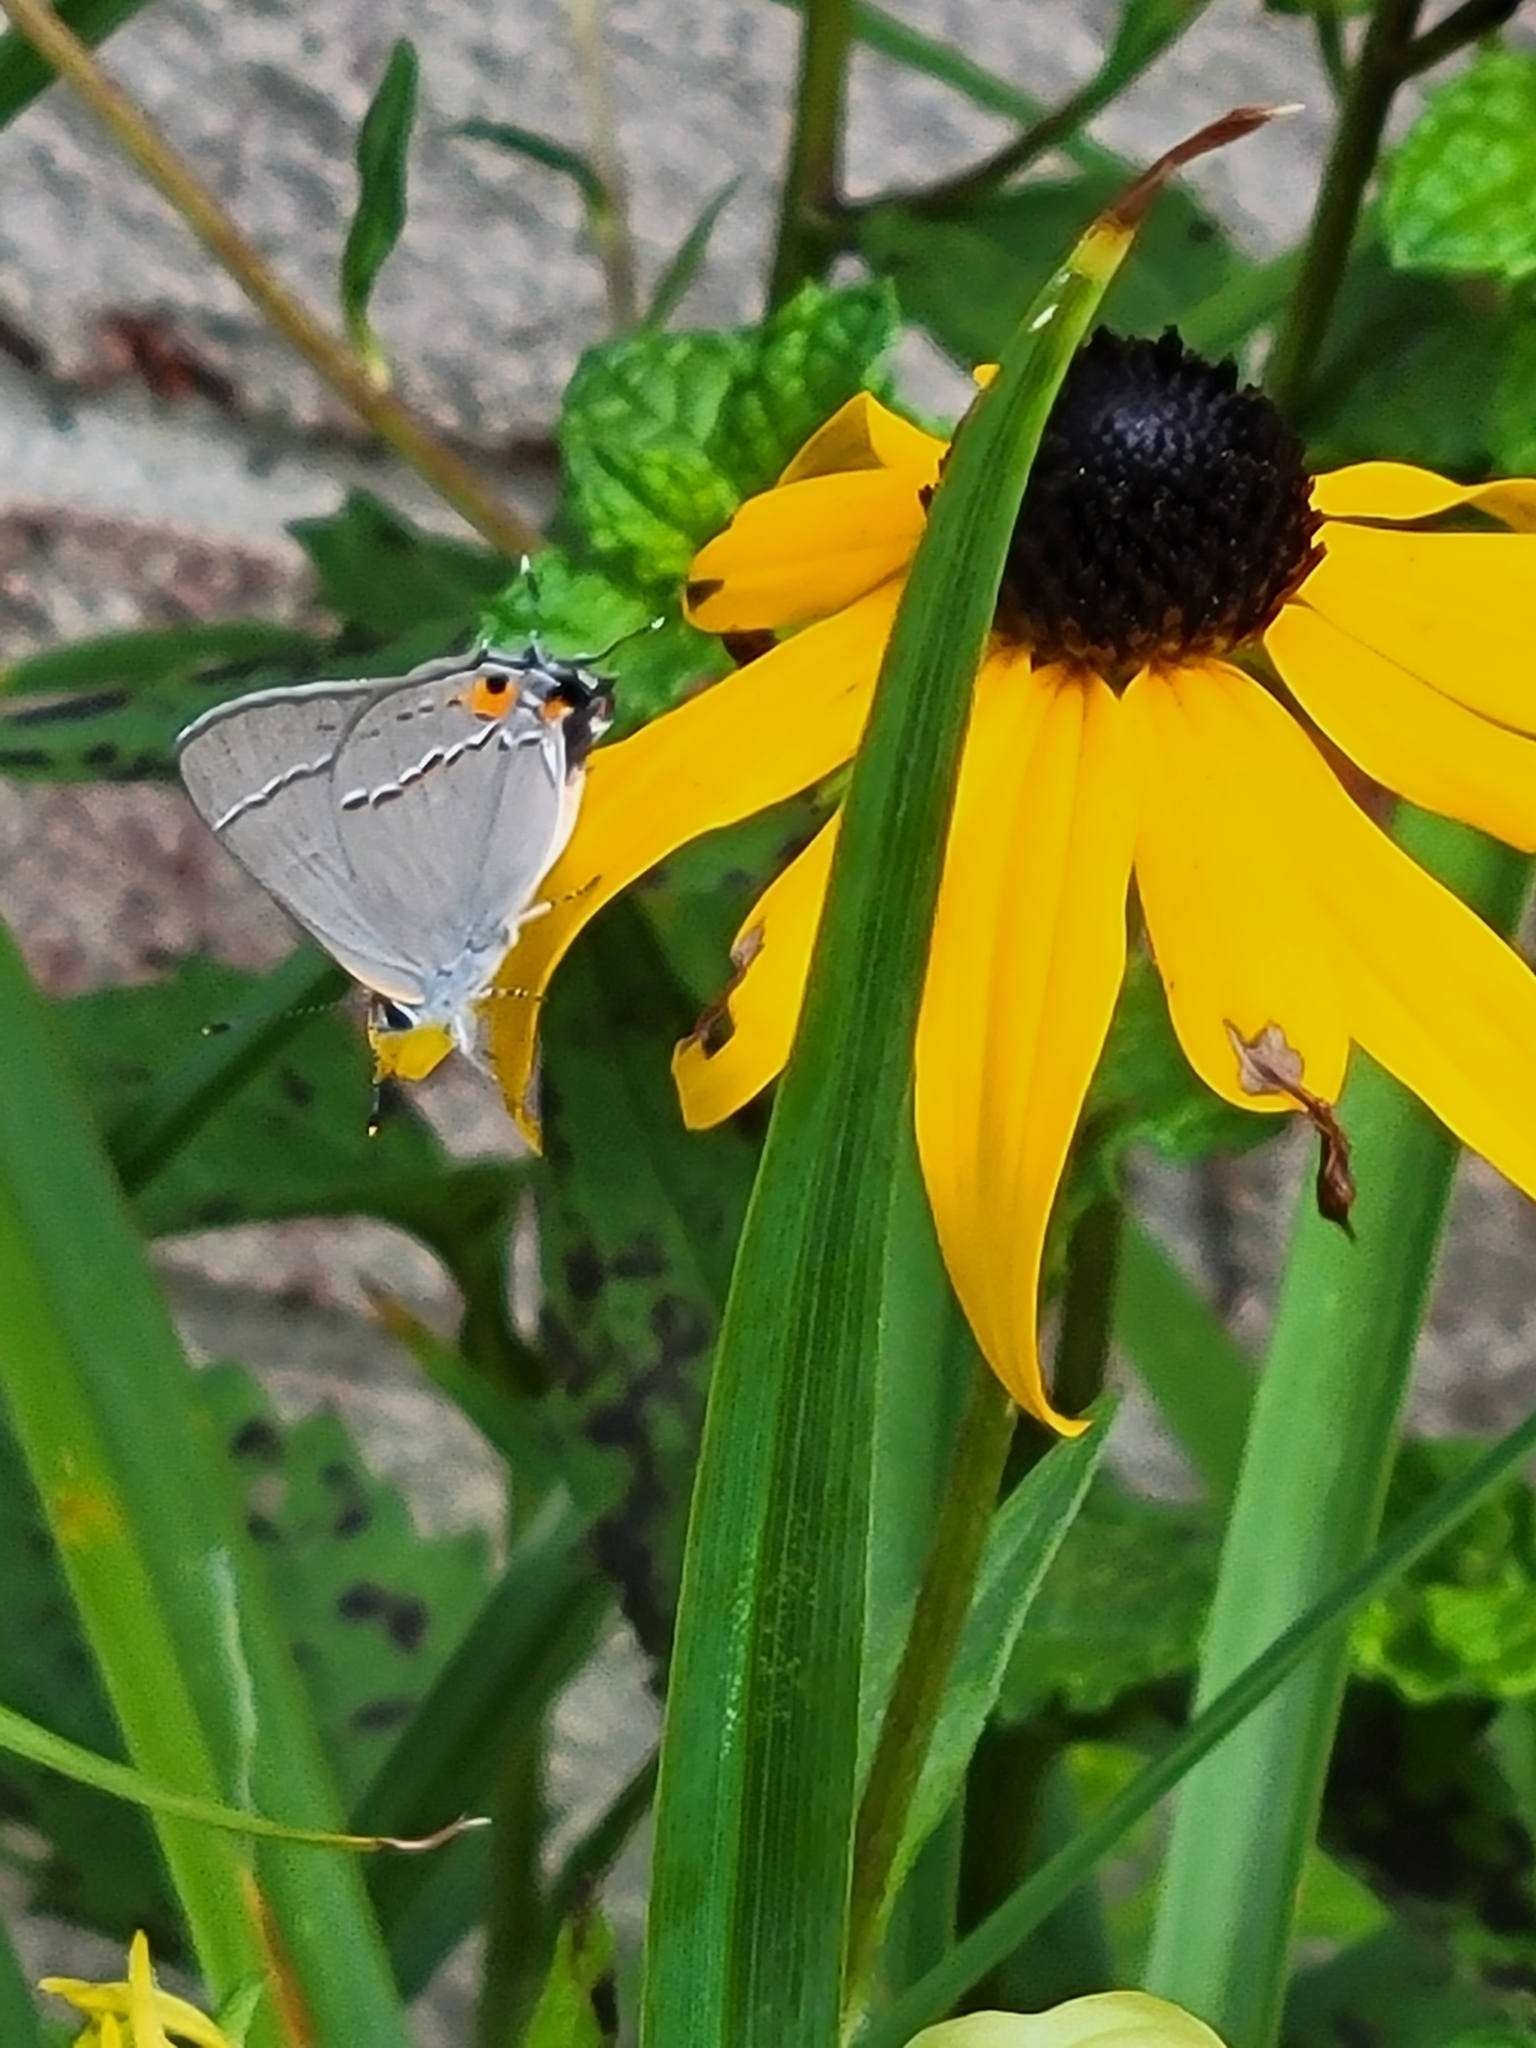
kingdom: Animalia
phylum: Arthropoda
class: Insecta
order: Lepidoptera
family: Lycaenidae
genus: Strymon
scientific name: Strymon melinus
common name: Gray hairstreak
